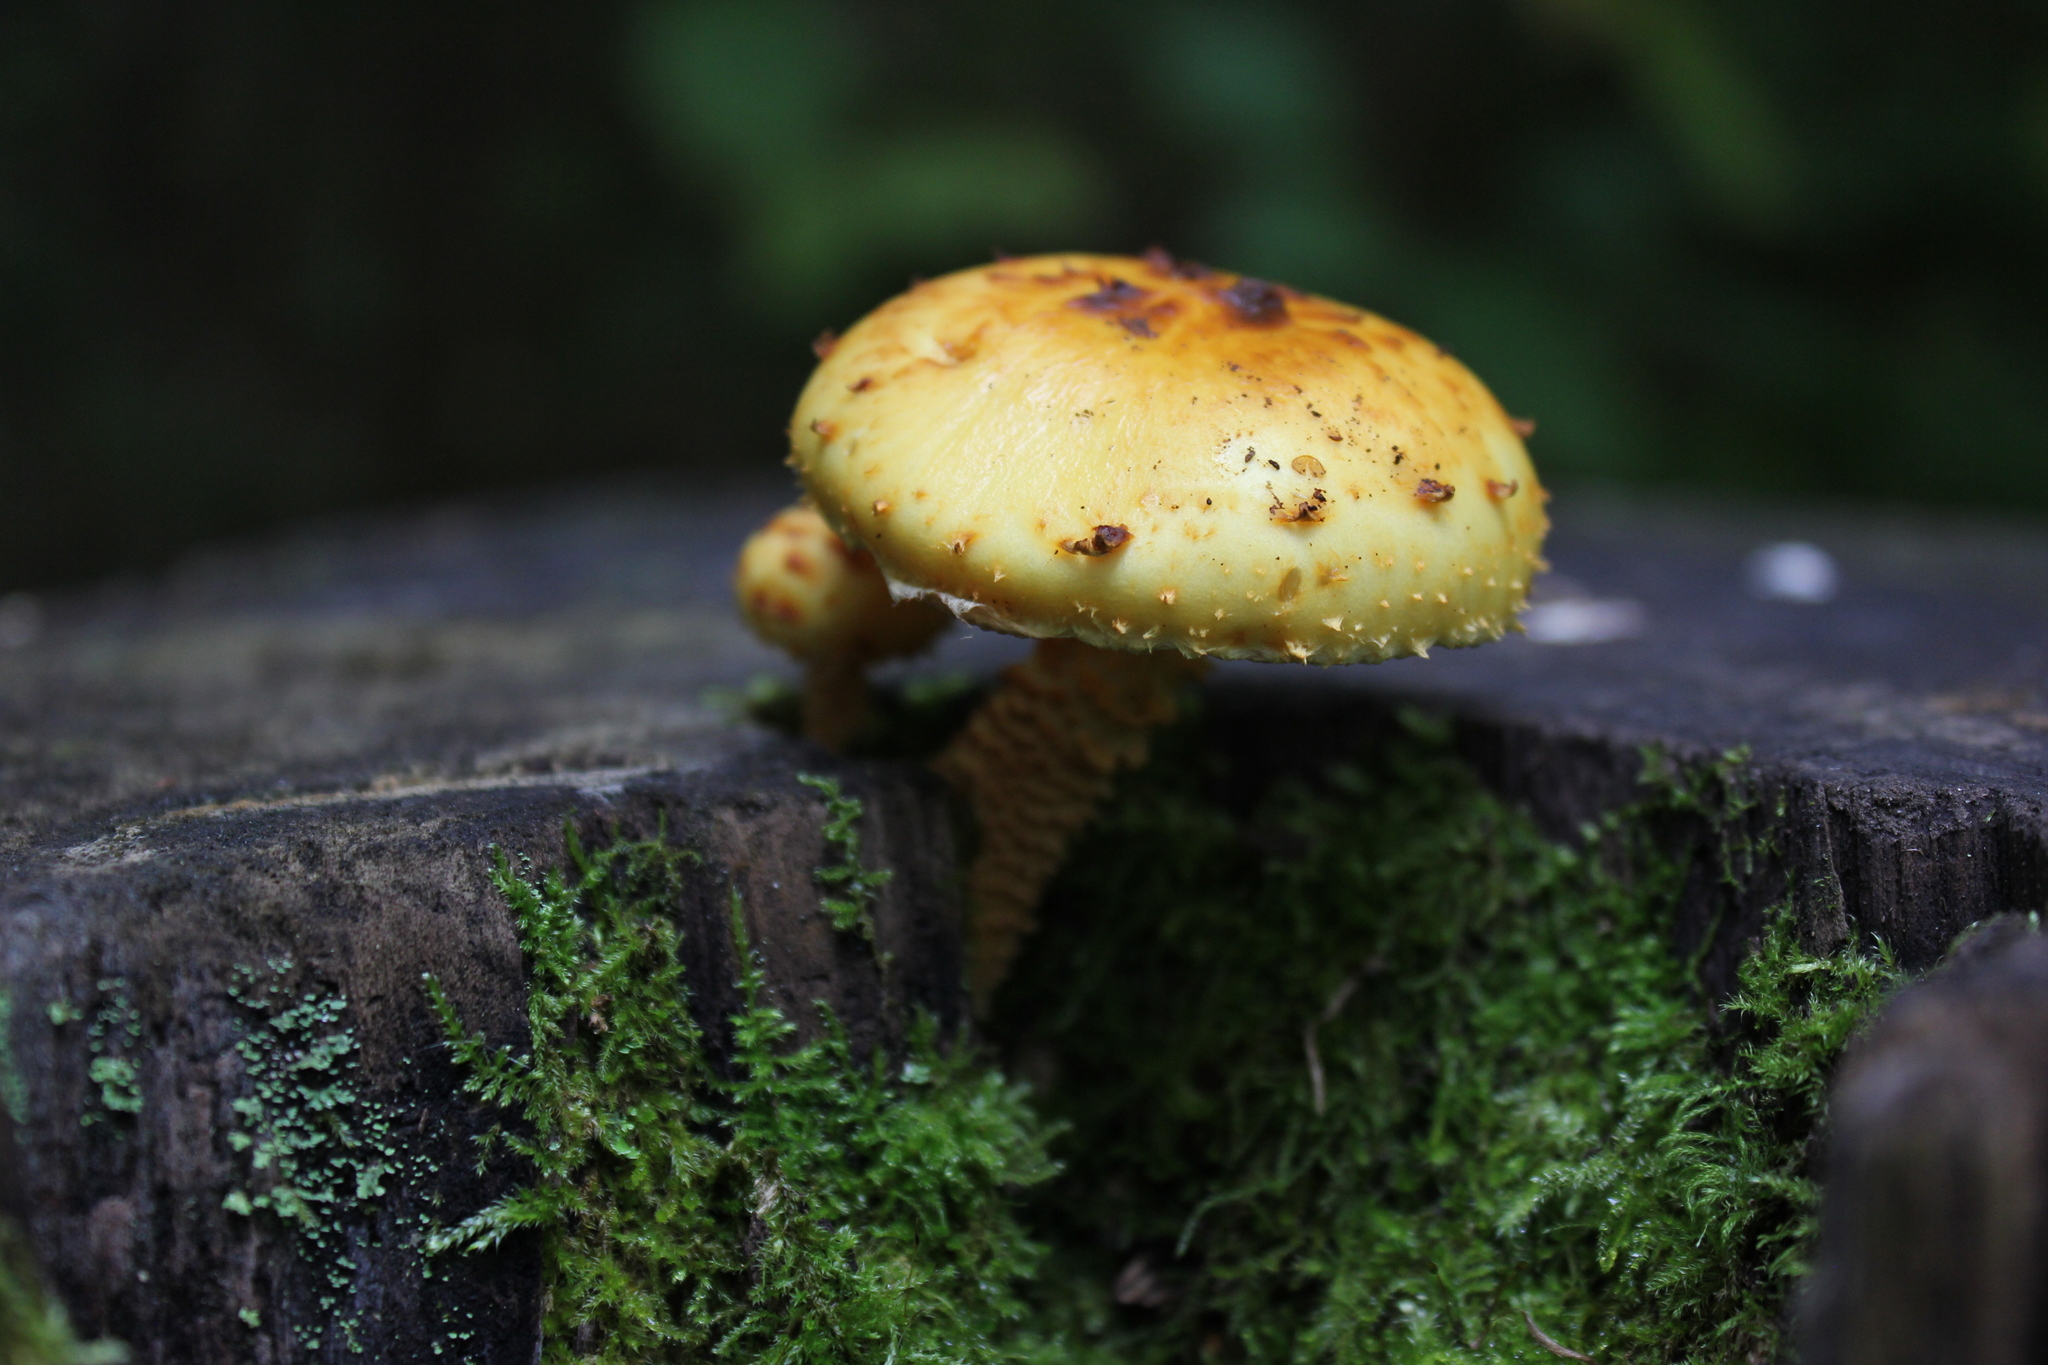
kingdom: Fungi
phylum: Basidiomycota
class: Agaricomycetes
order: Agaricales
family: Strophariaceae
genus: Pholiota
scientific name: Pholiota aurivella
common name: Golden scalycap
